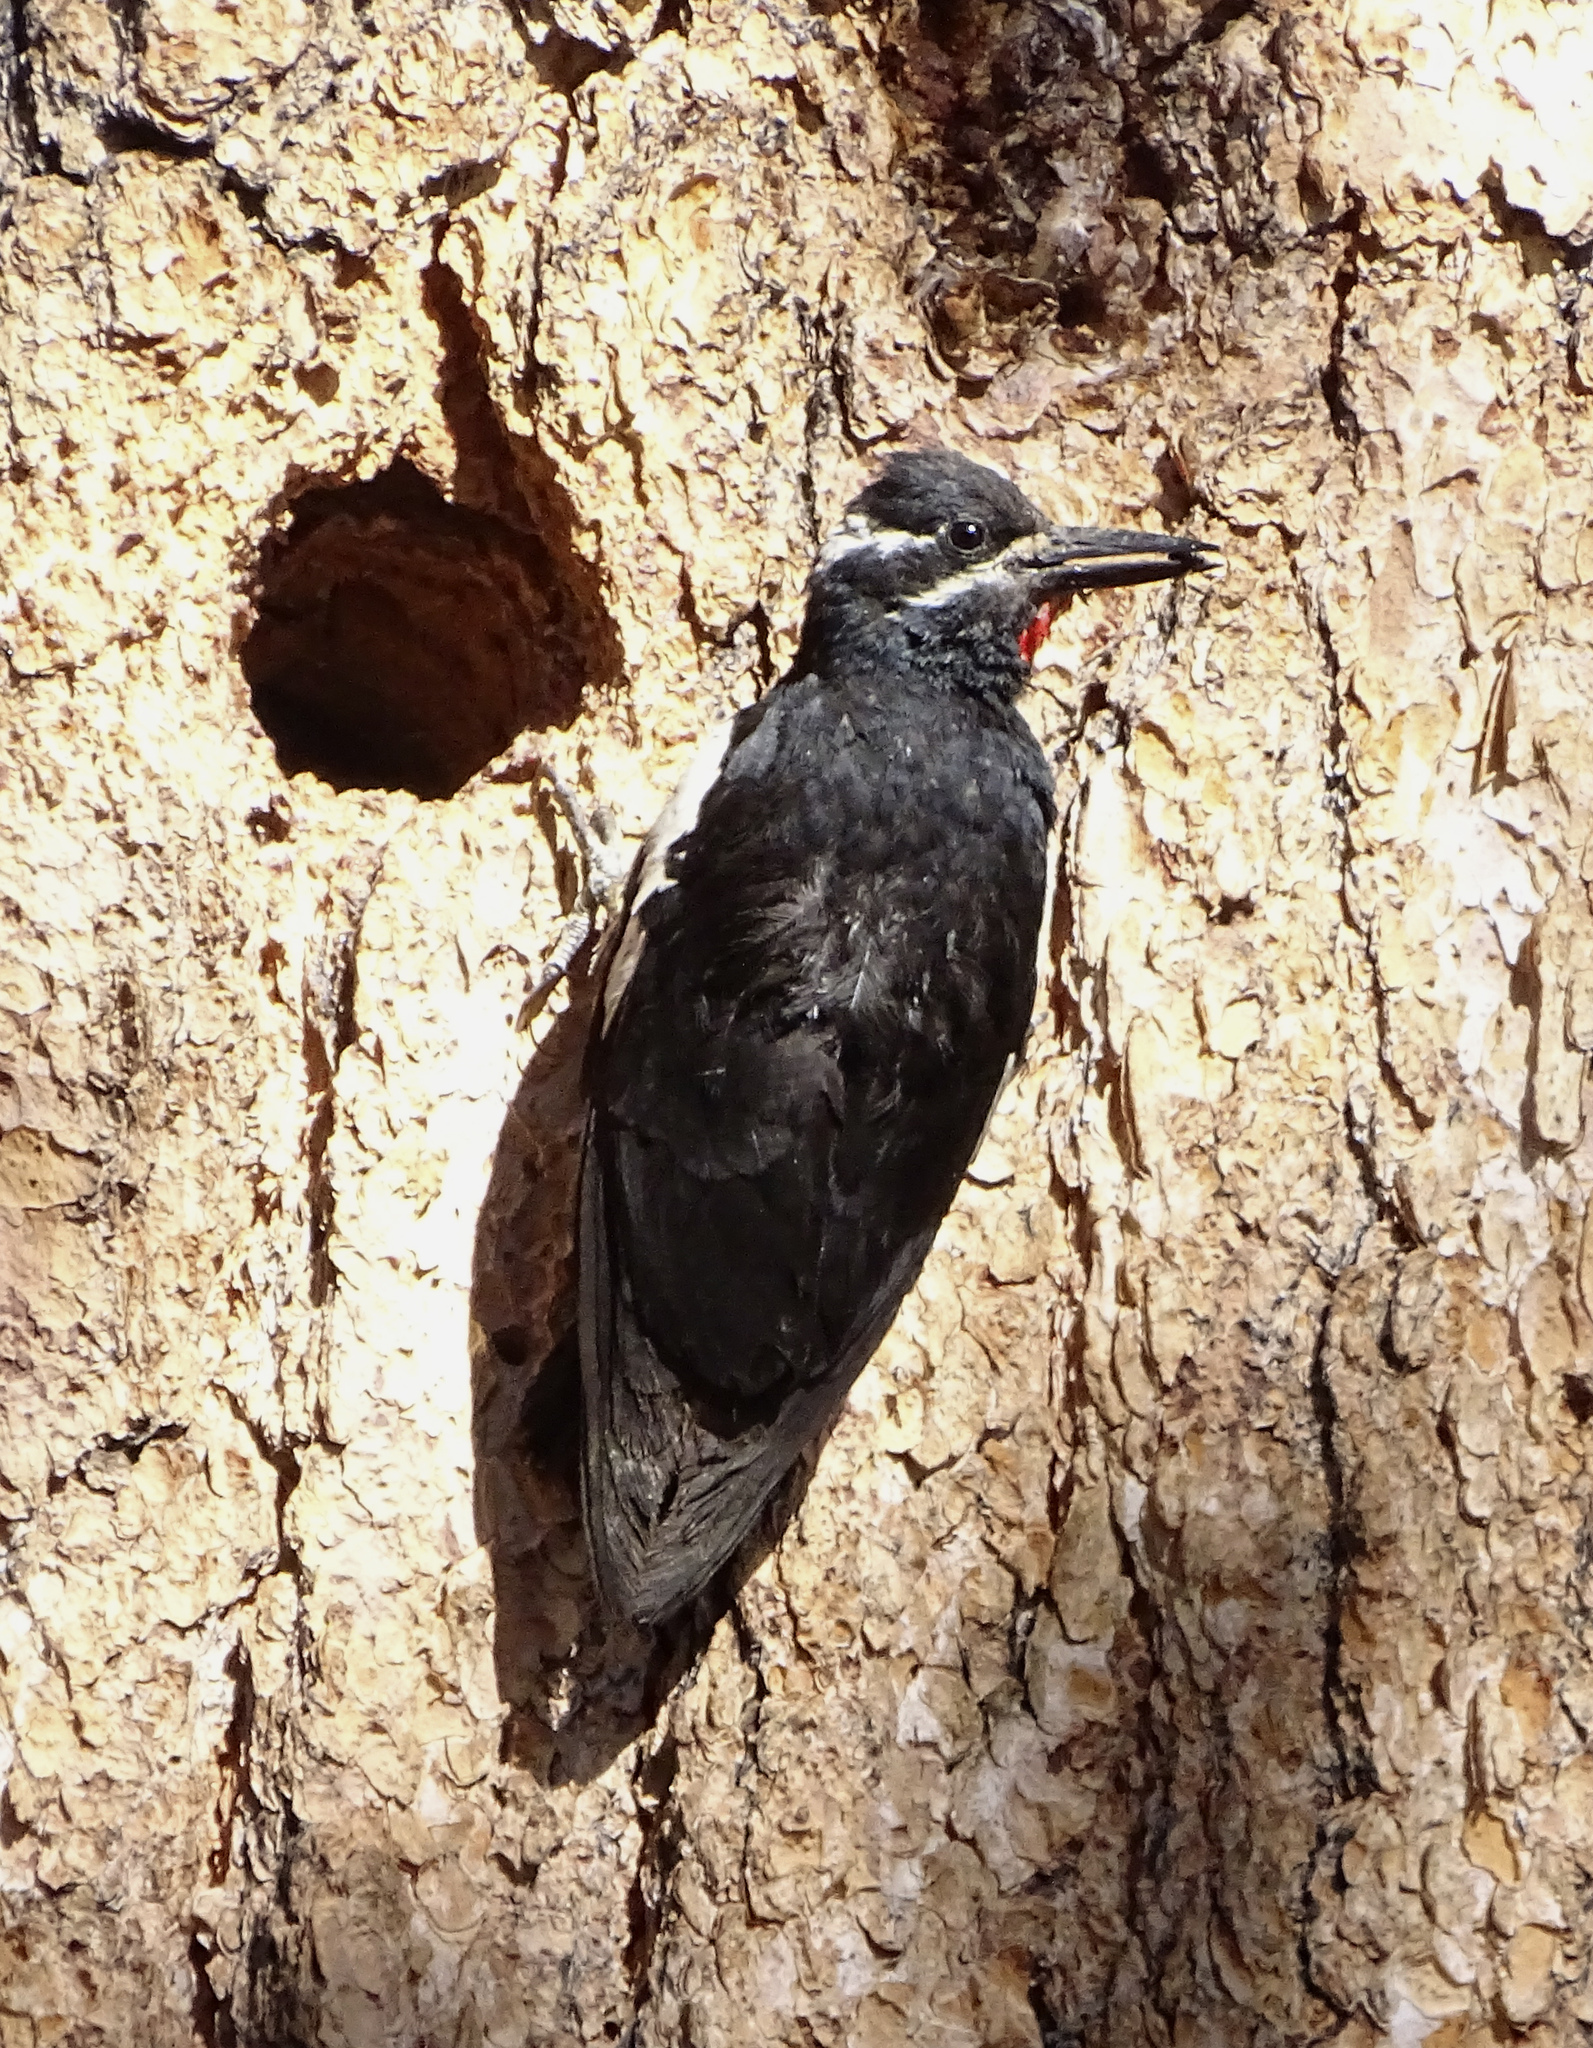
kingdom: Animalia
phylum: Chordata
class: Aves
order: Piciformes
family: Picidae
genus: Sphyrapicus
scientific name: Sphyrapicus thyroideus
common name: Williamson's sapsucker
